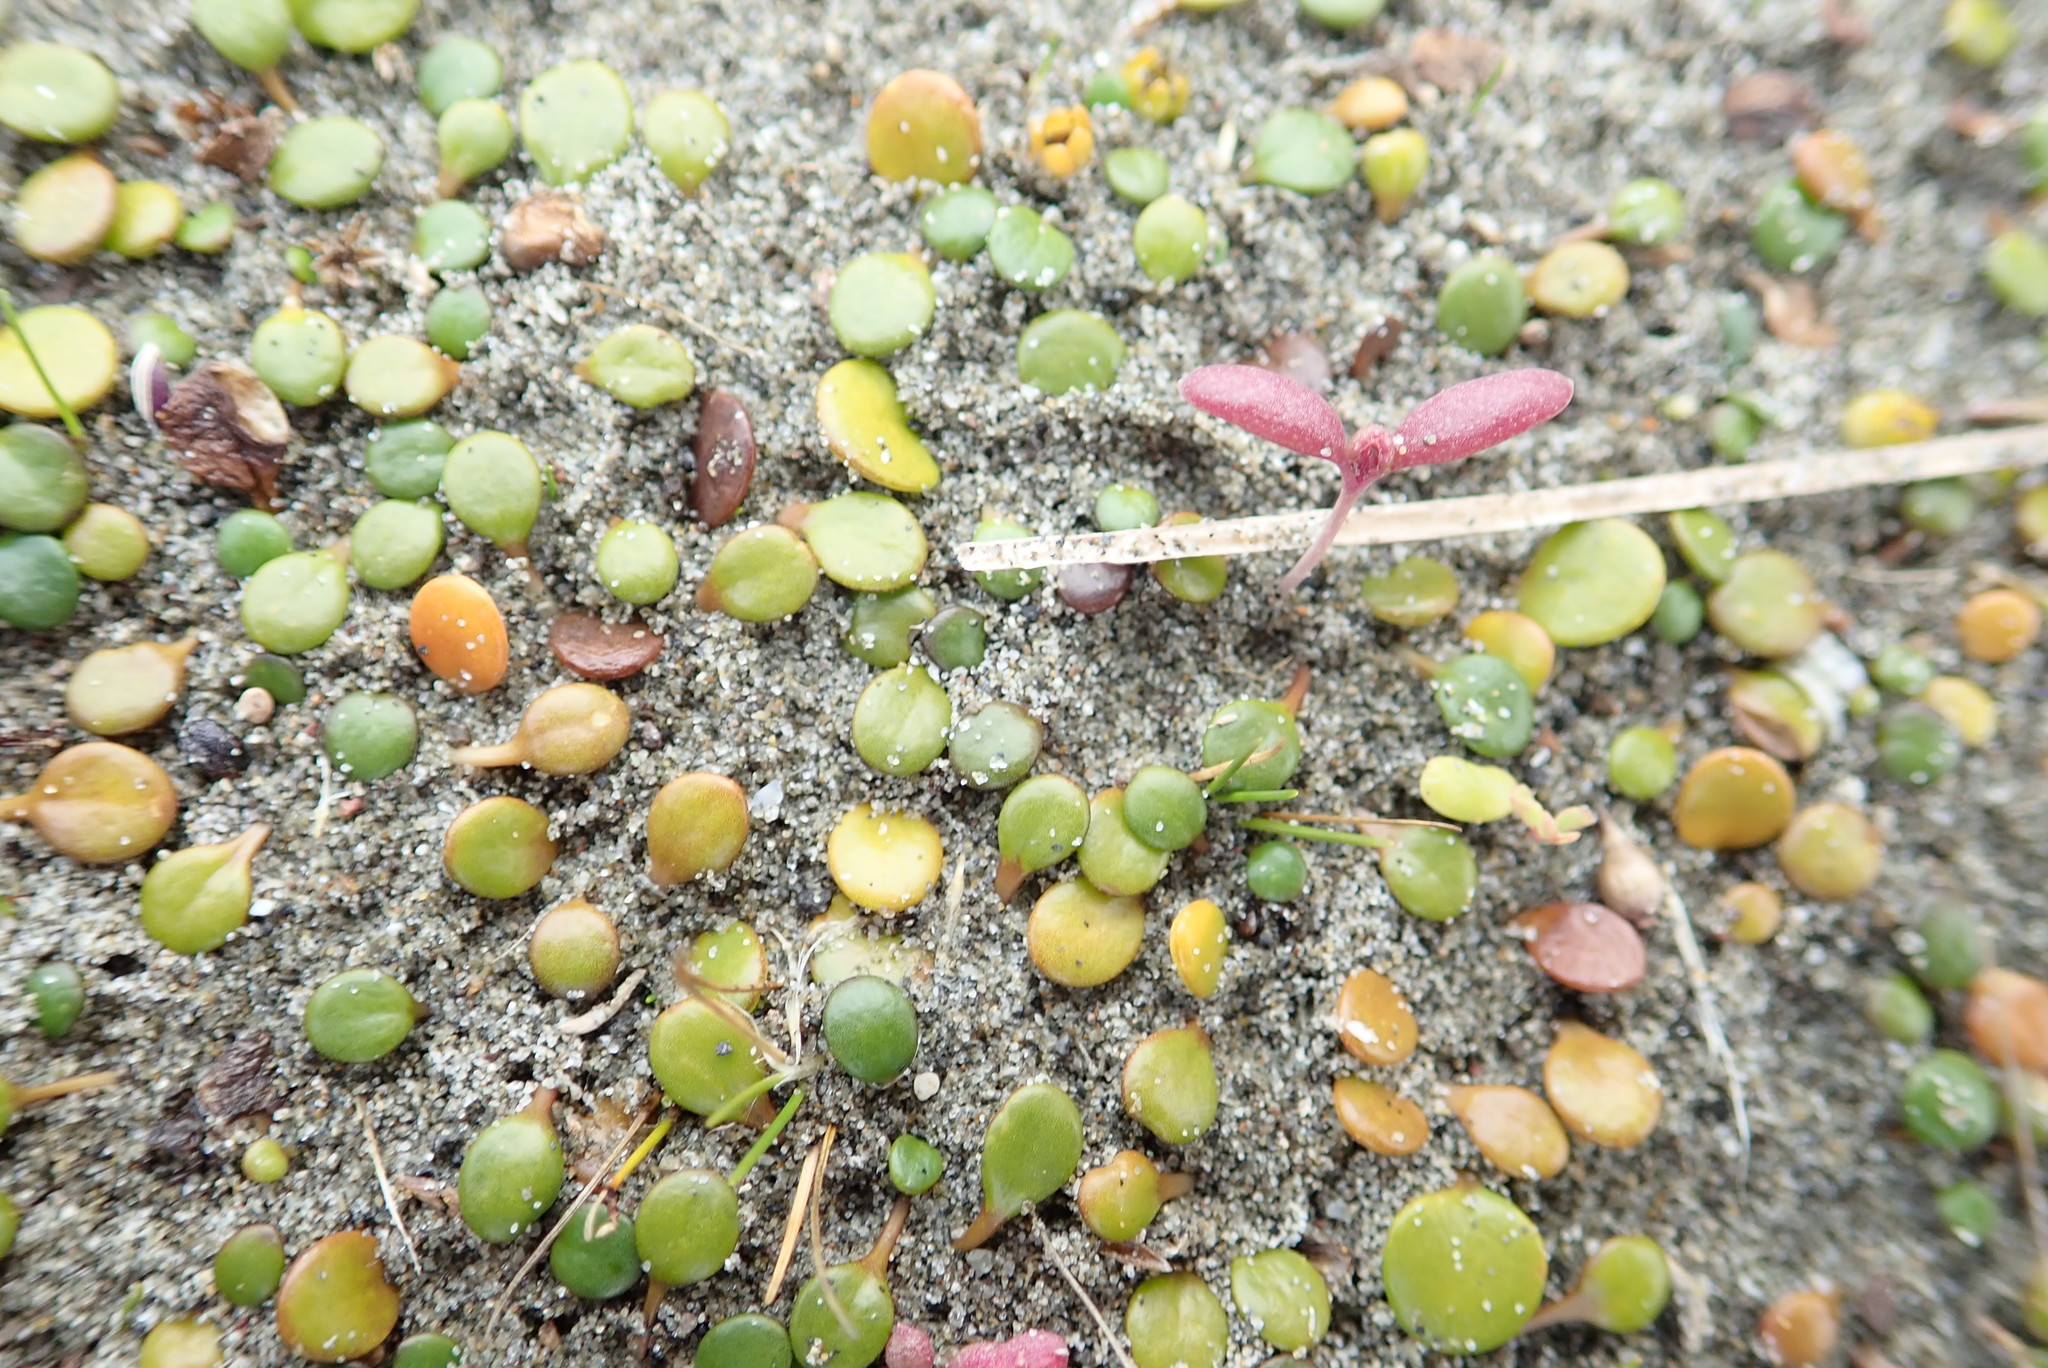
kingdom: Plantae
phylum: Tracheophyta
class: Magnoliopsida
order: Asterales
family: Goodeniaceae
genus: Goodenia
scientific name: Goodenia heenanii
